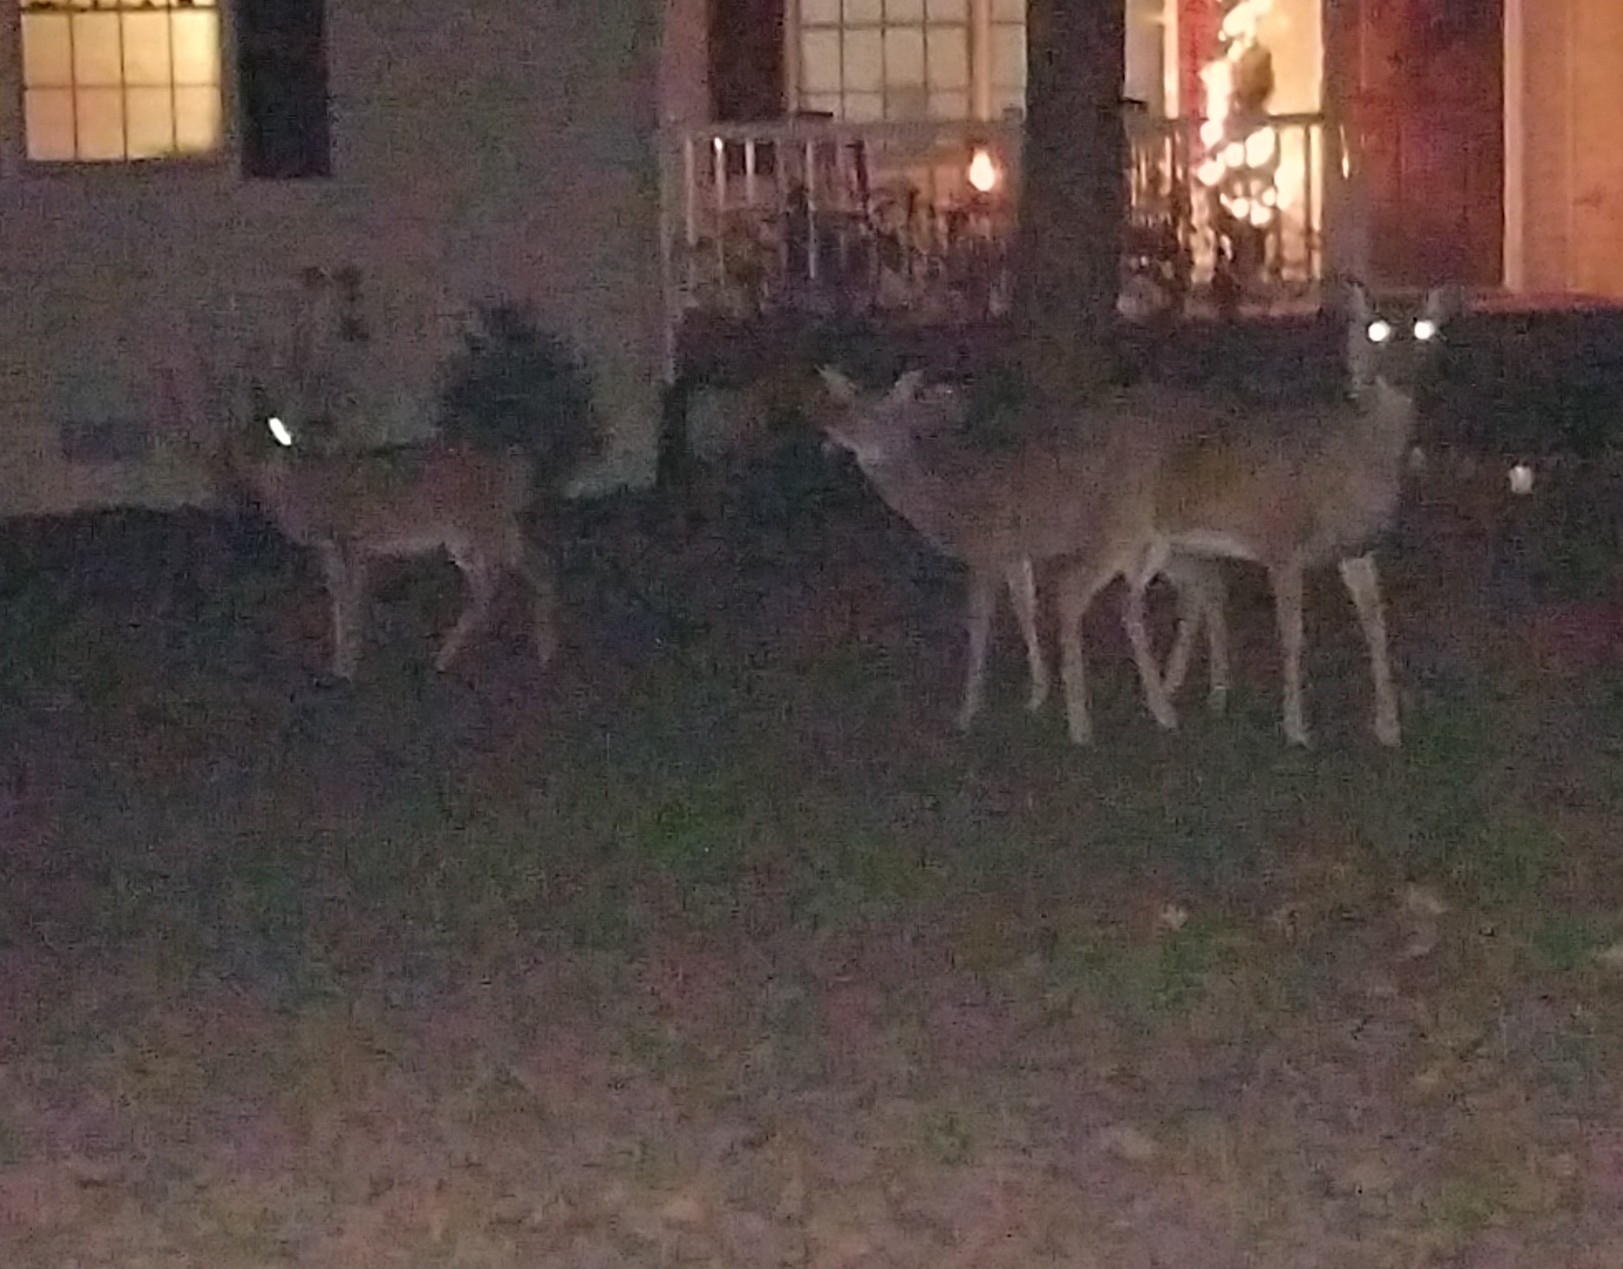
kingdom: Animalia
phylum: Chordata
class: Mammalia
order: Artiodactyla
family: Cervidae
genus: Odocoileus
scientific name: Odocoileus virginianus
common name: White-tailed deer
